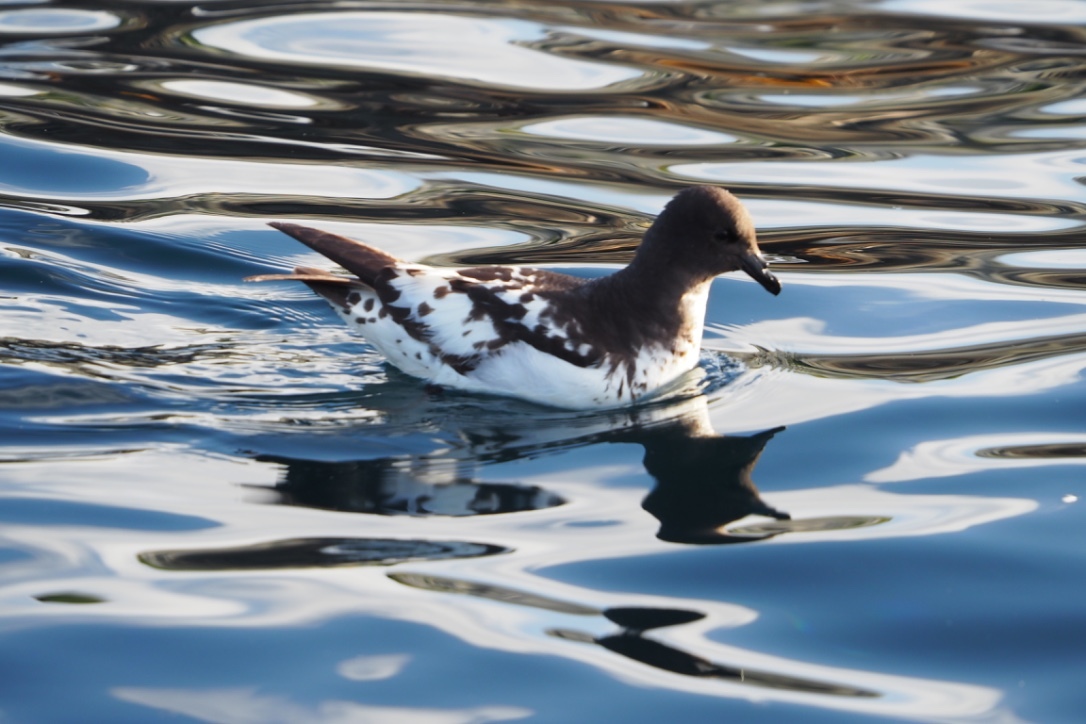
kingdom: Animalia
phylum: Chordata
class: Aves
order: Procellariiformes
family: Procellariidae
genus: Daption
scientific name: Daption capense
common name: Cape petrel
